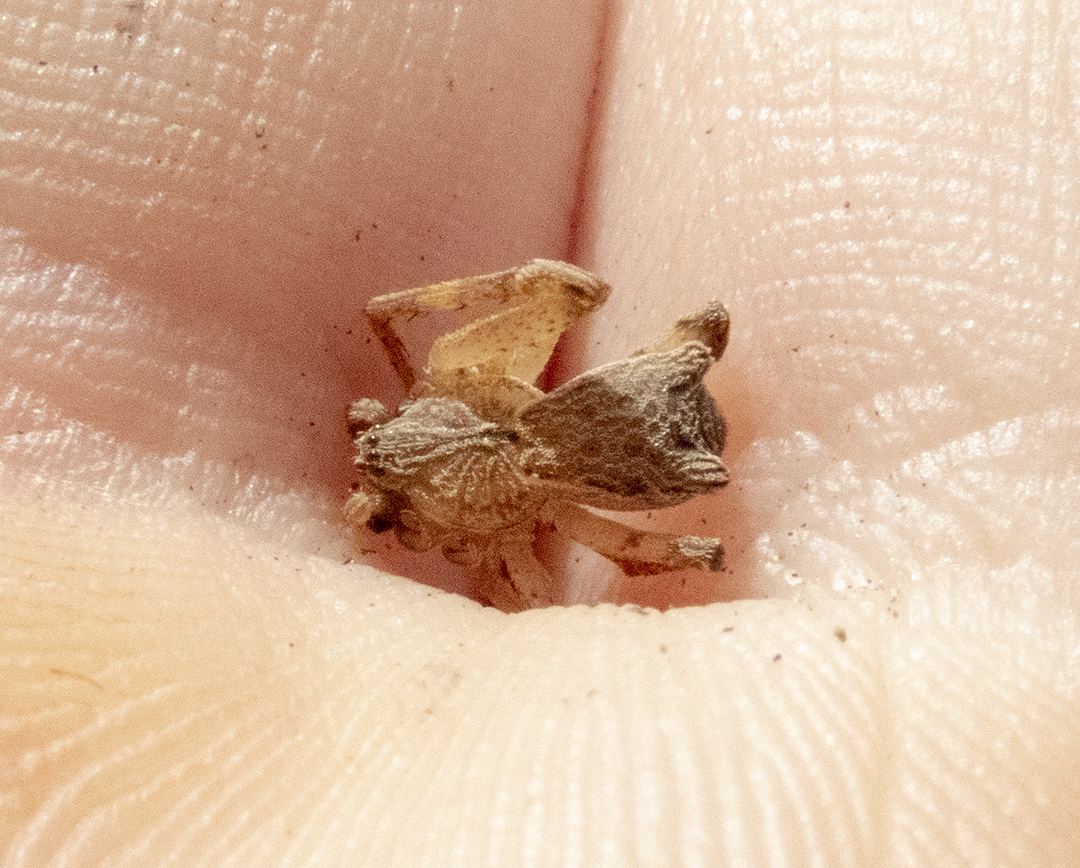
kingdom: Animalia
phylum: Arthropoda
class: Arachnida
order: Araneae
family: Thomisidae
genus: Sidymella
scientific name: Sidymella angularis
